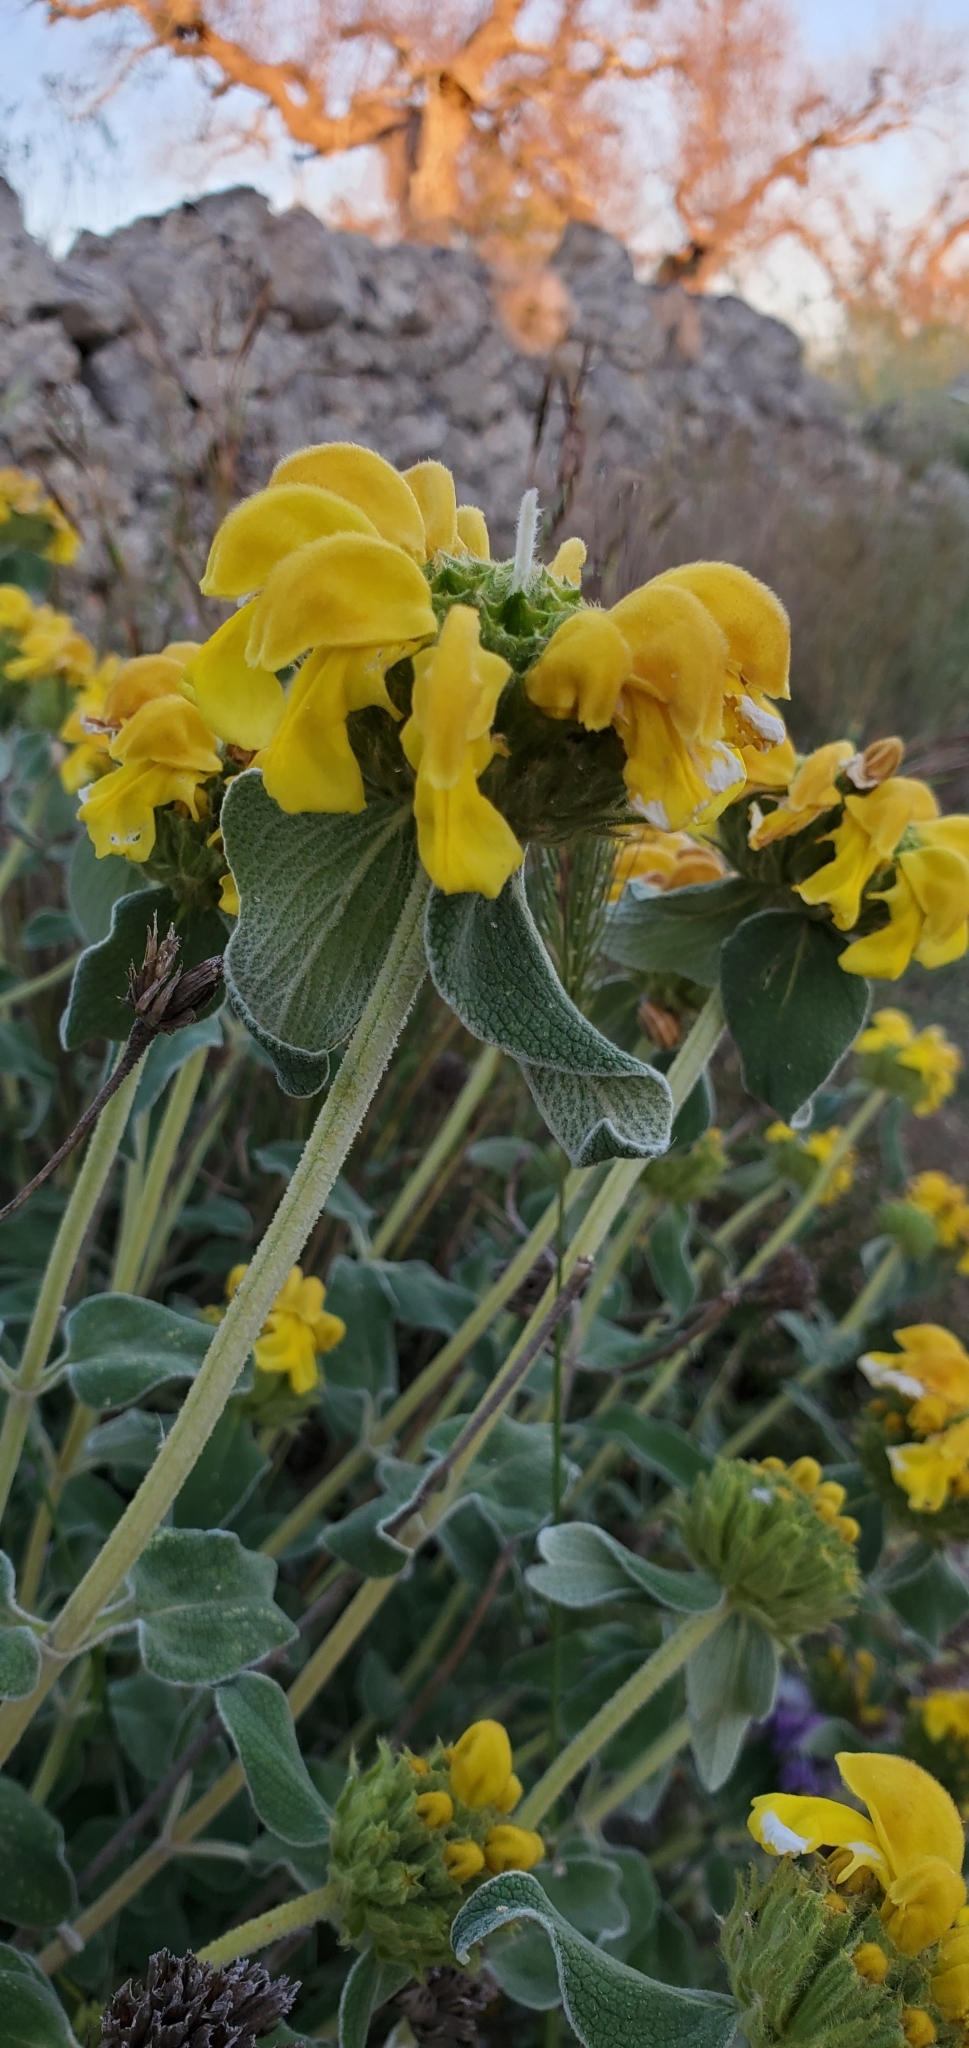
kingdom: Plantae
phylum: Tracheophyta
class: Magnoliopsida
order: Lamiales
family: Lamiaceae
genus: Phlomis
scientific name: Phlomis fruticosa
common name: Jerusalem sage
